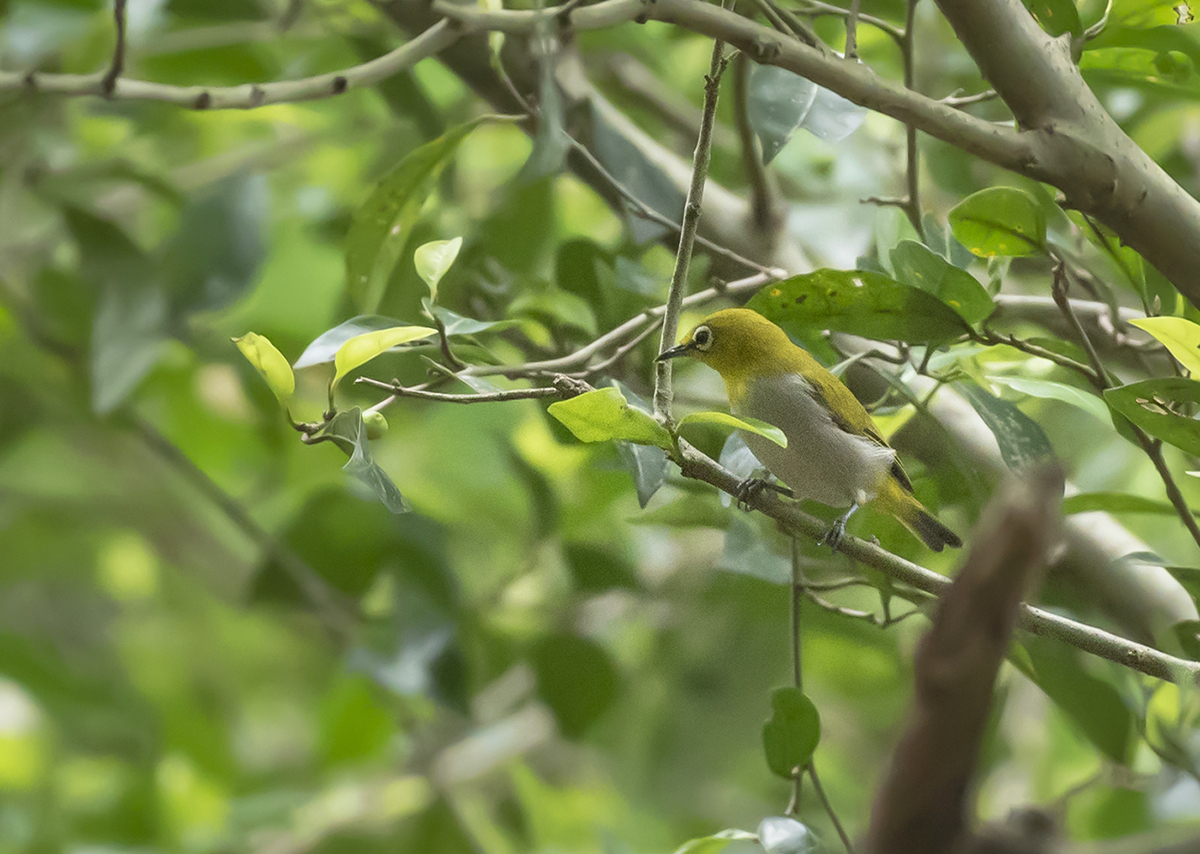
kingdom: Animalia
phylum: Chordata
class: Aves
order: Passeriformes
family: Zosteropidae
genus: Zosterops
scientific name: Zosterops palpebrosus
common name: Oriental white-eye
